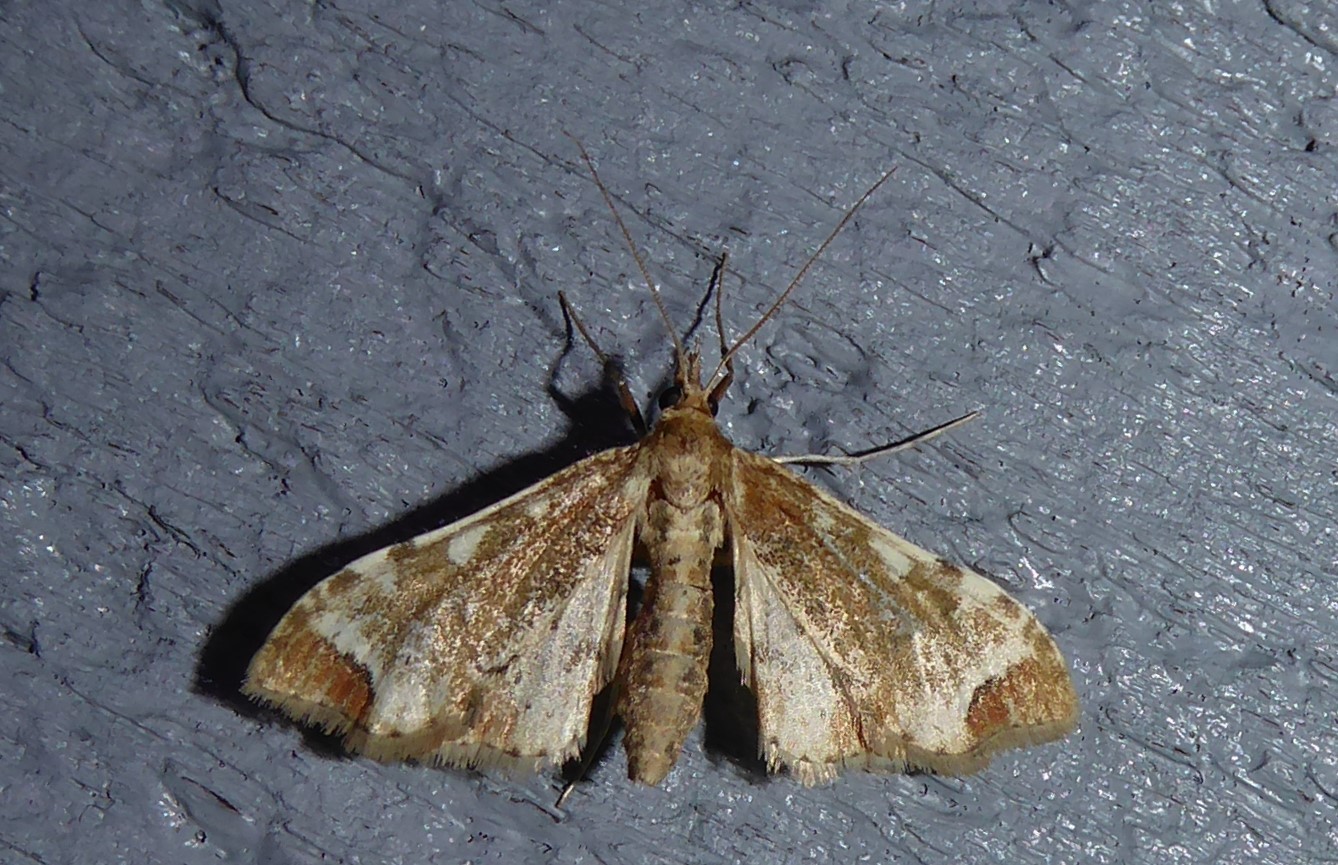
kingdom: Animalia
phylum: Arthropoda
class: Insecta
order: Lepidoptera
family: Crambidae
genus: Sceliodes
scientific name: Sceliodes cordalis
